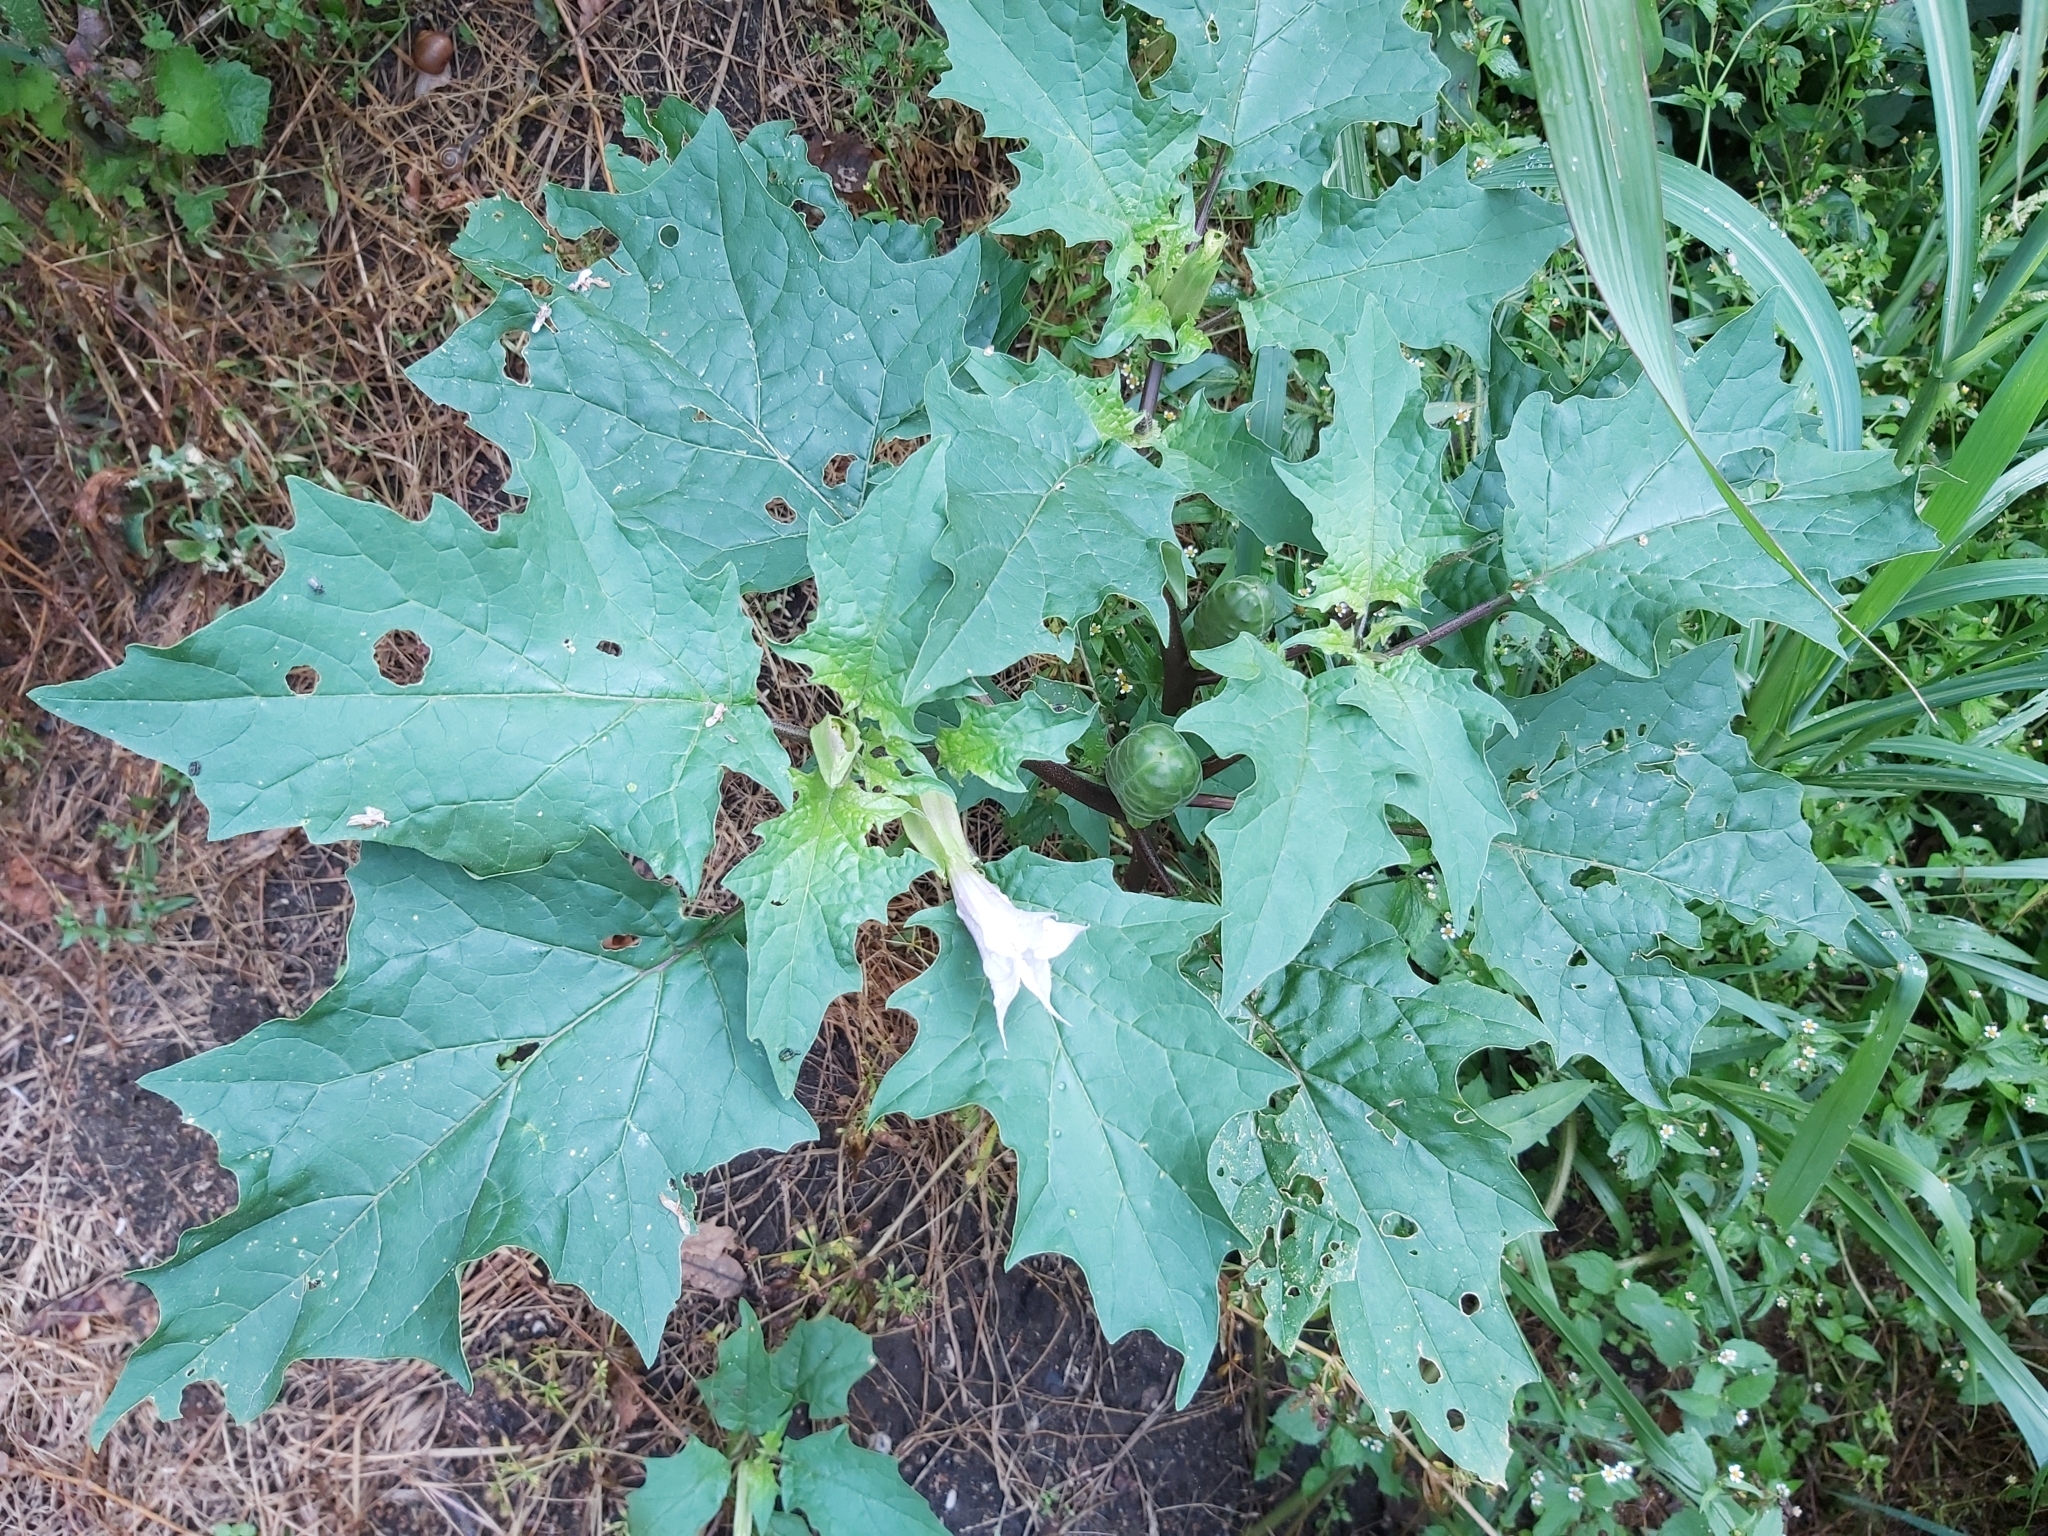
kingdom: Plantae
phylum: Tracheophyta
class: Magnoliopsida
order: Solanales
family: Solanaceae
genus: Datura
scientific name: Datura stramonium
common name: Thorn-apple
